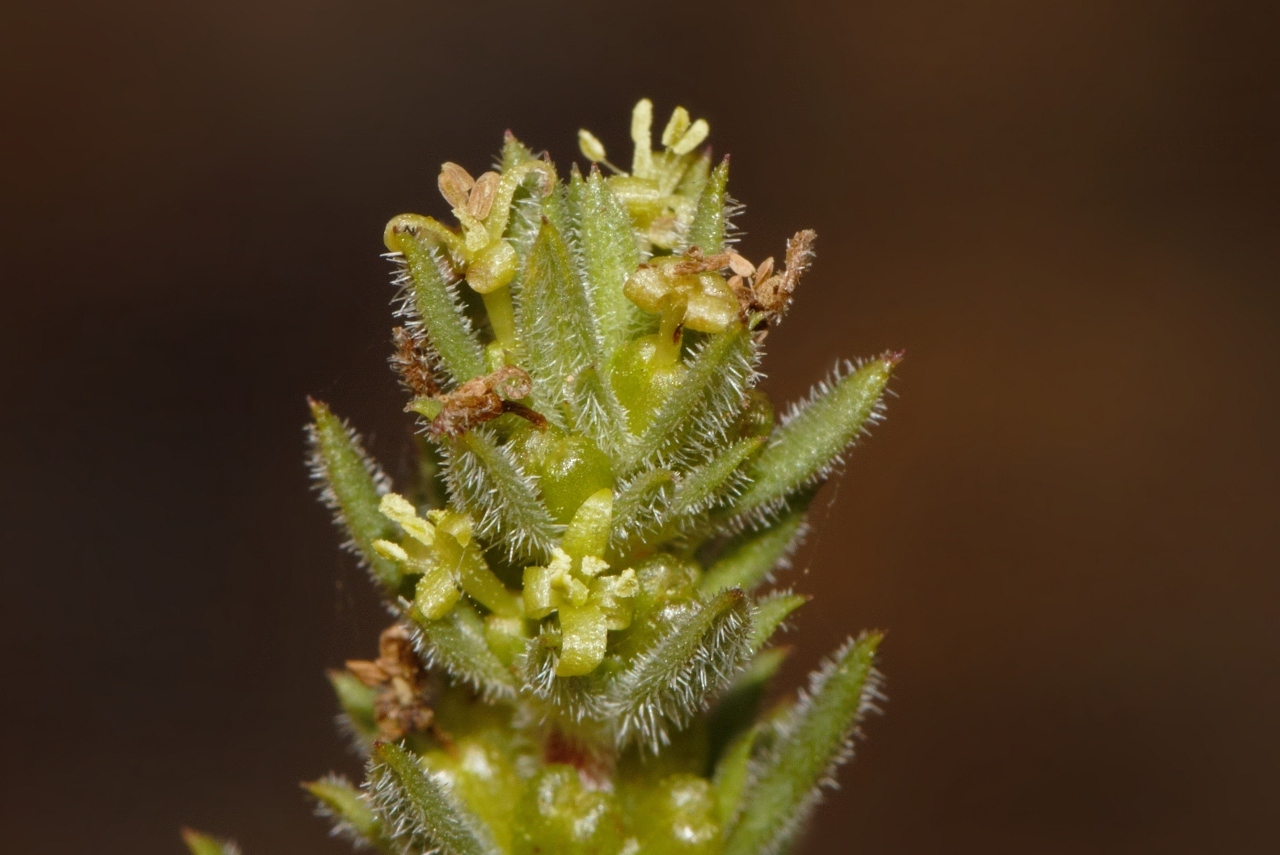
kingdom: Plantae
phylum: Tracheophyta
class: Magnoliopsida
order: Gentianales
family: Rubiaceae
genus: Anthospermum
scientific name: Anthospermum ternatum
